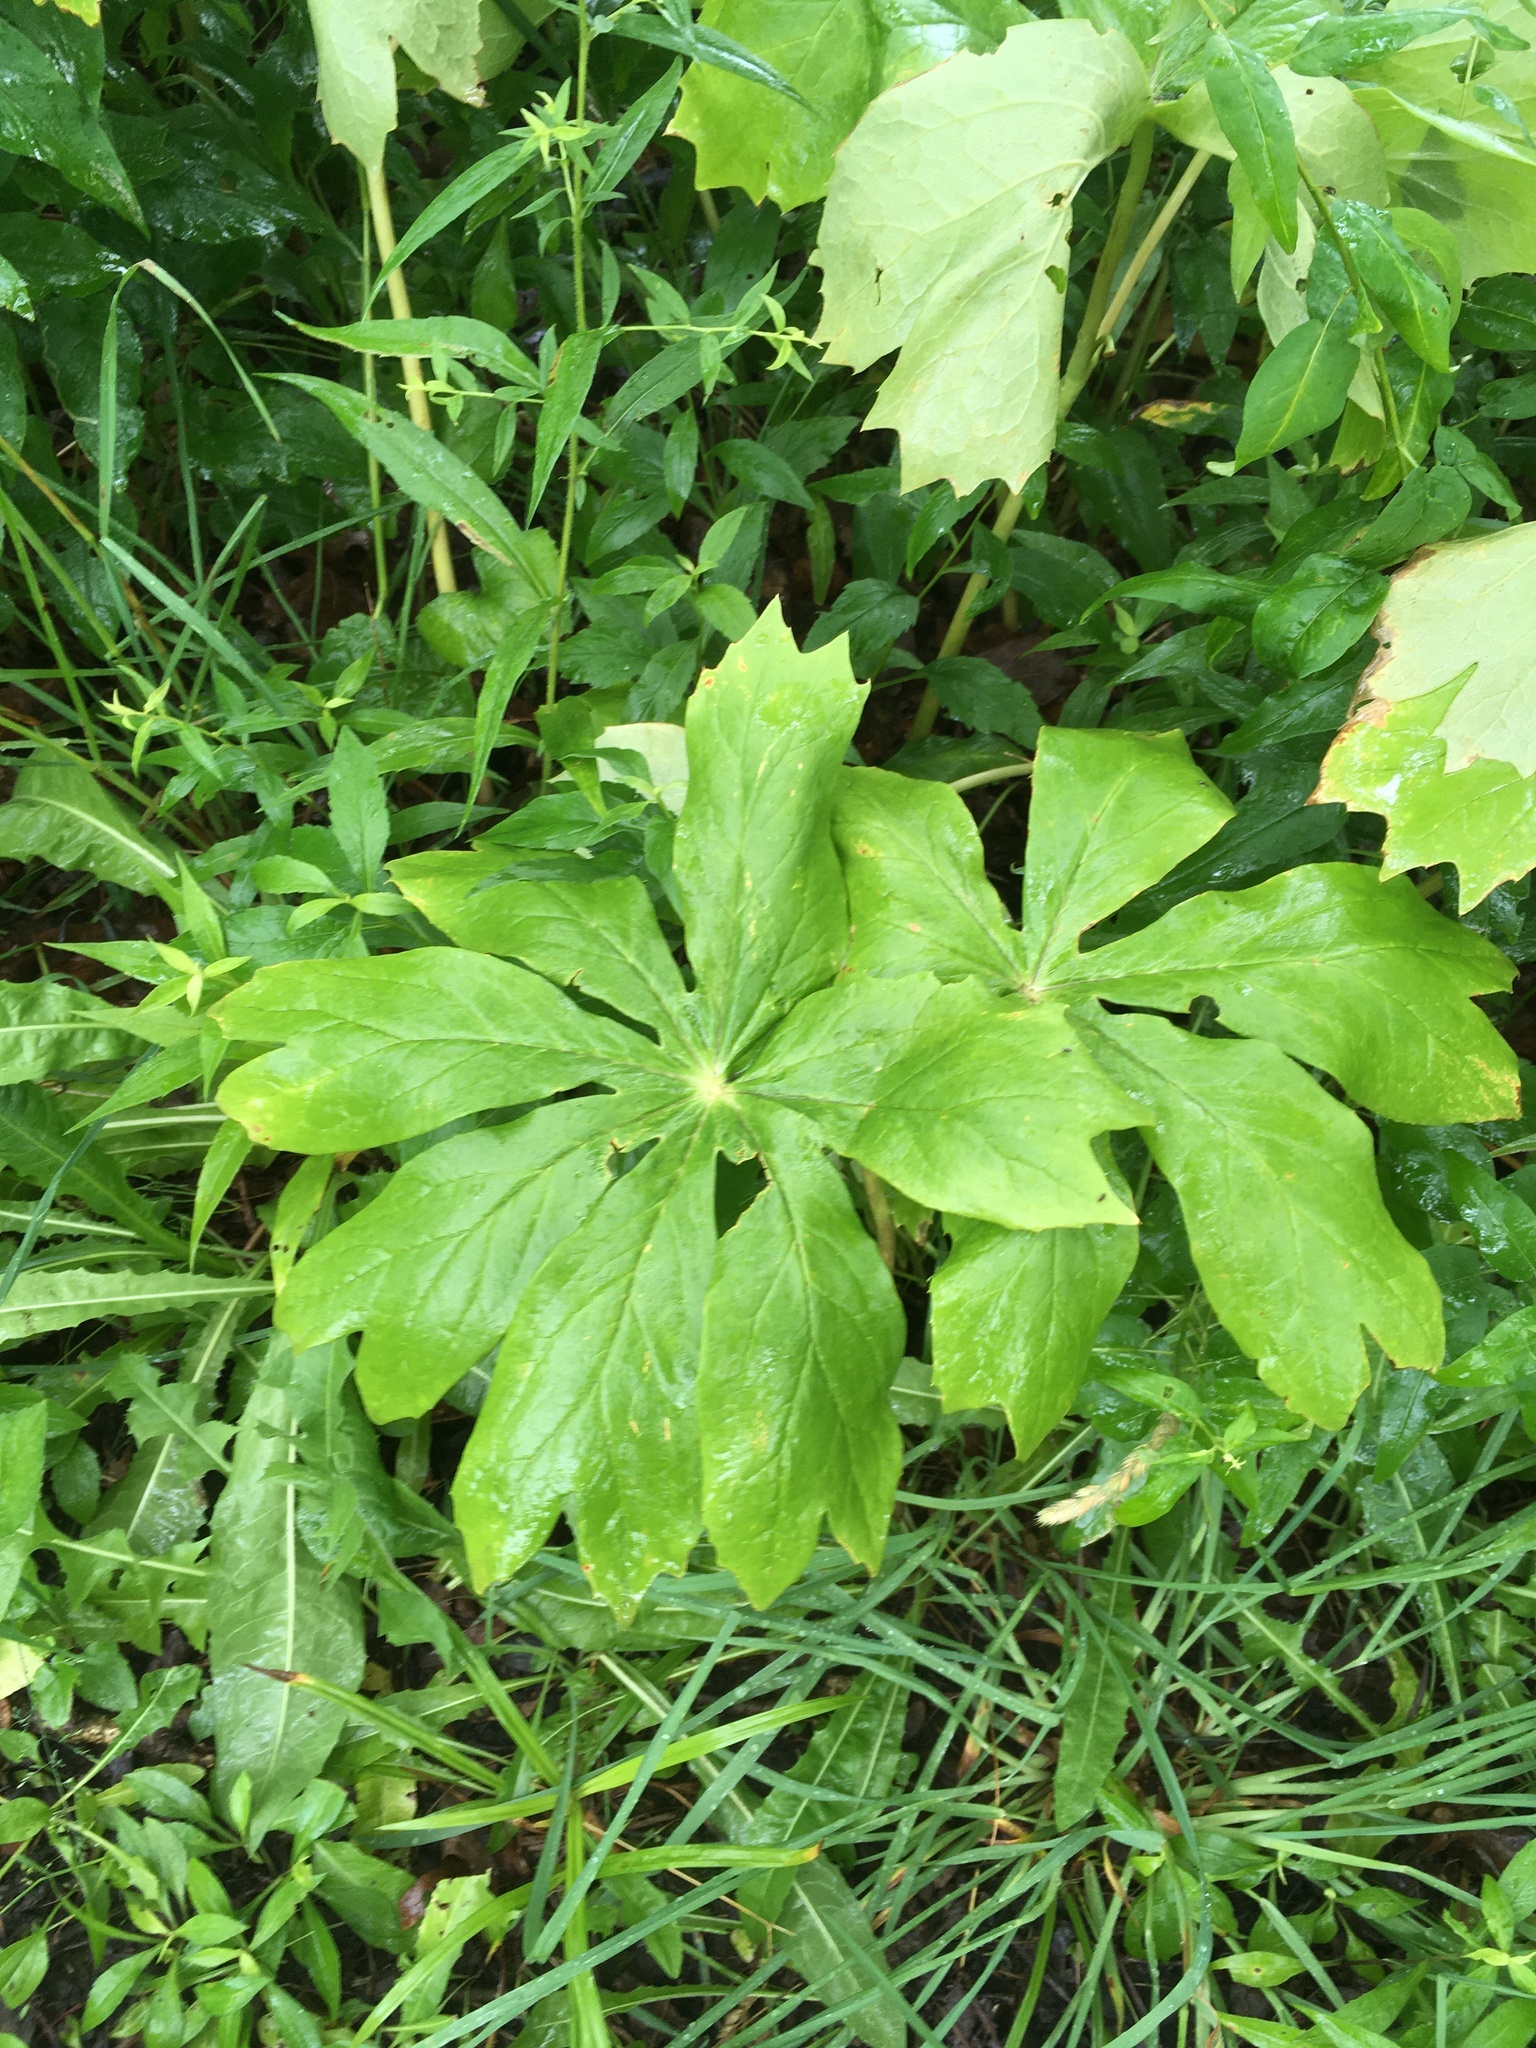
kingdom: Plantae
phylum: Tracheophyta
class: Magnoliopsida
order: Ranunculales
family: Berberidaceae
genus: Podophyllum
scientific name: Podophyllum peltatum
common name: Wild mandrake
